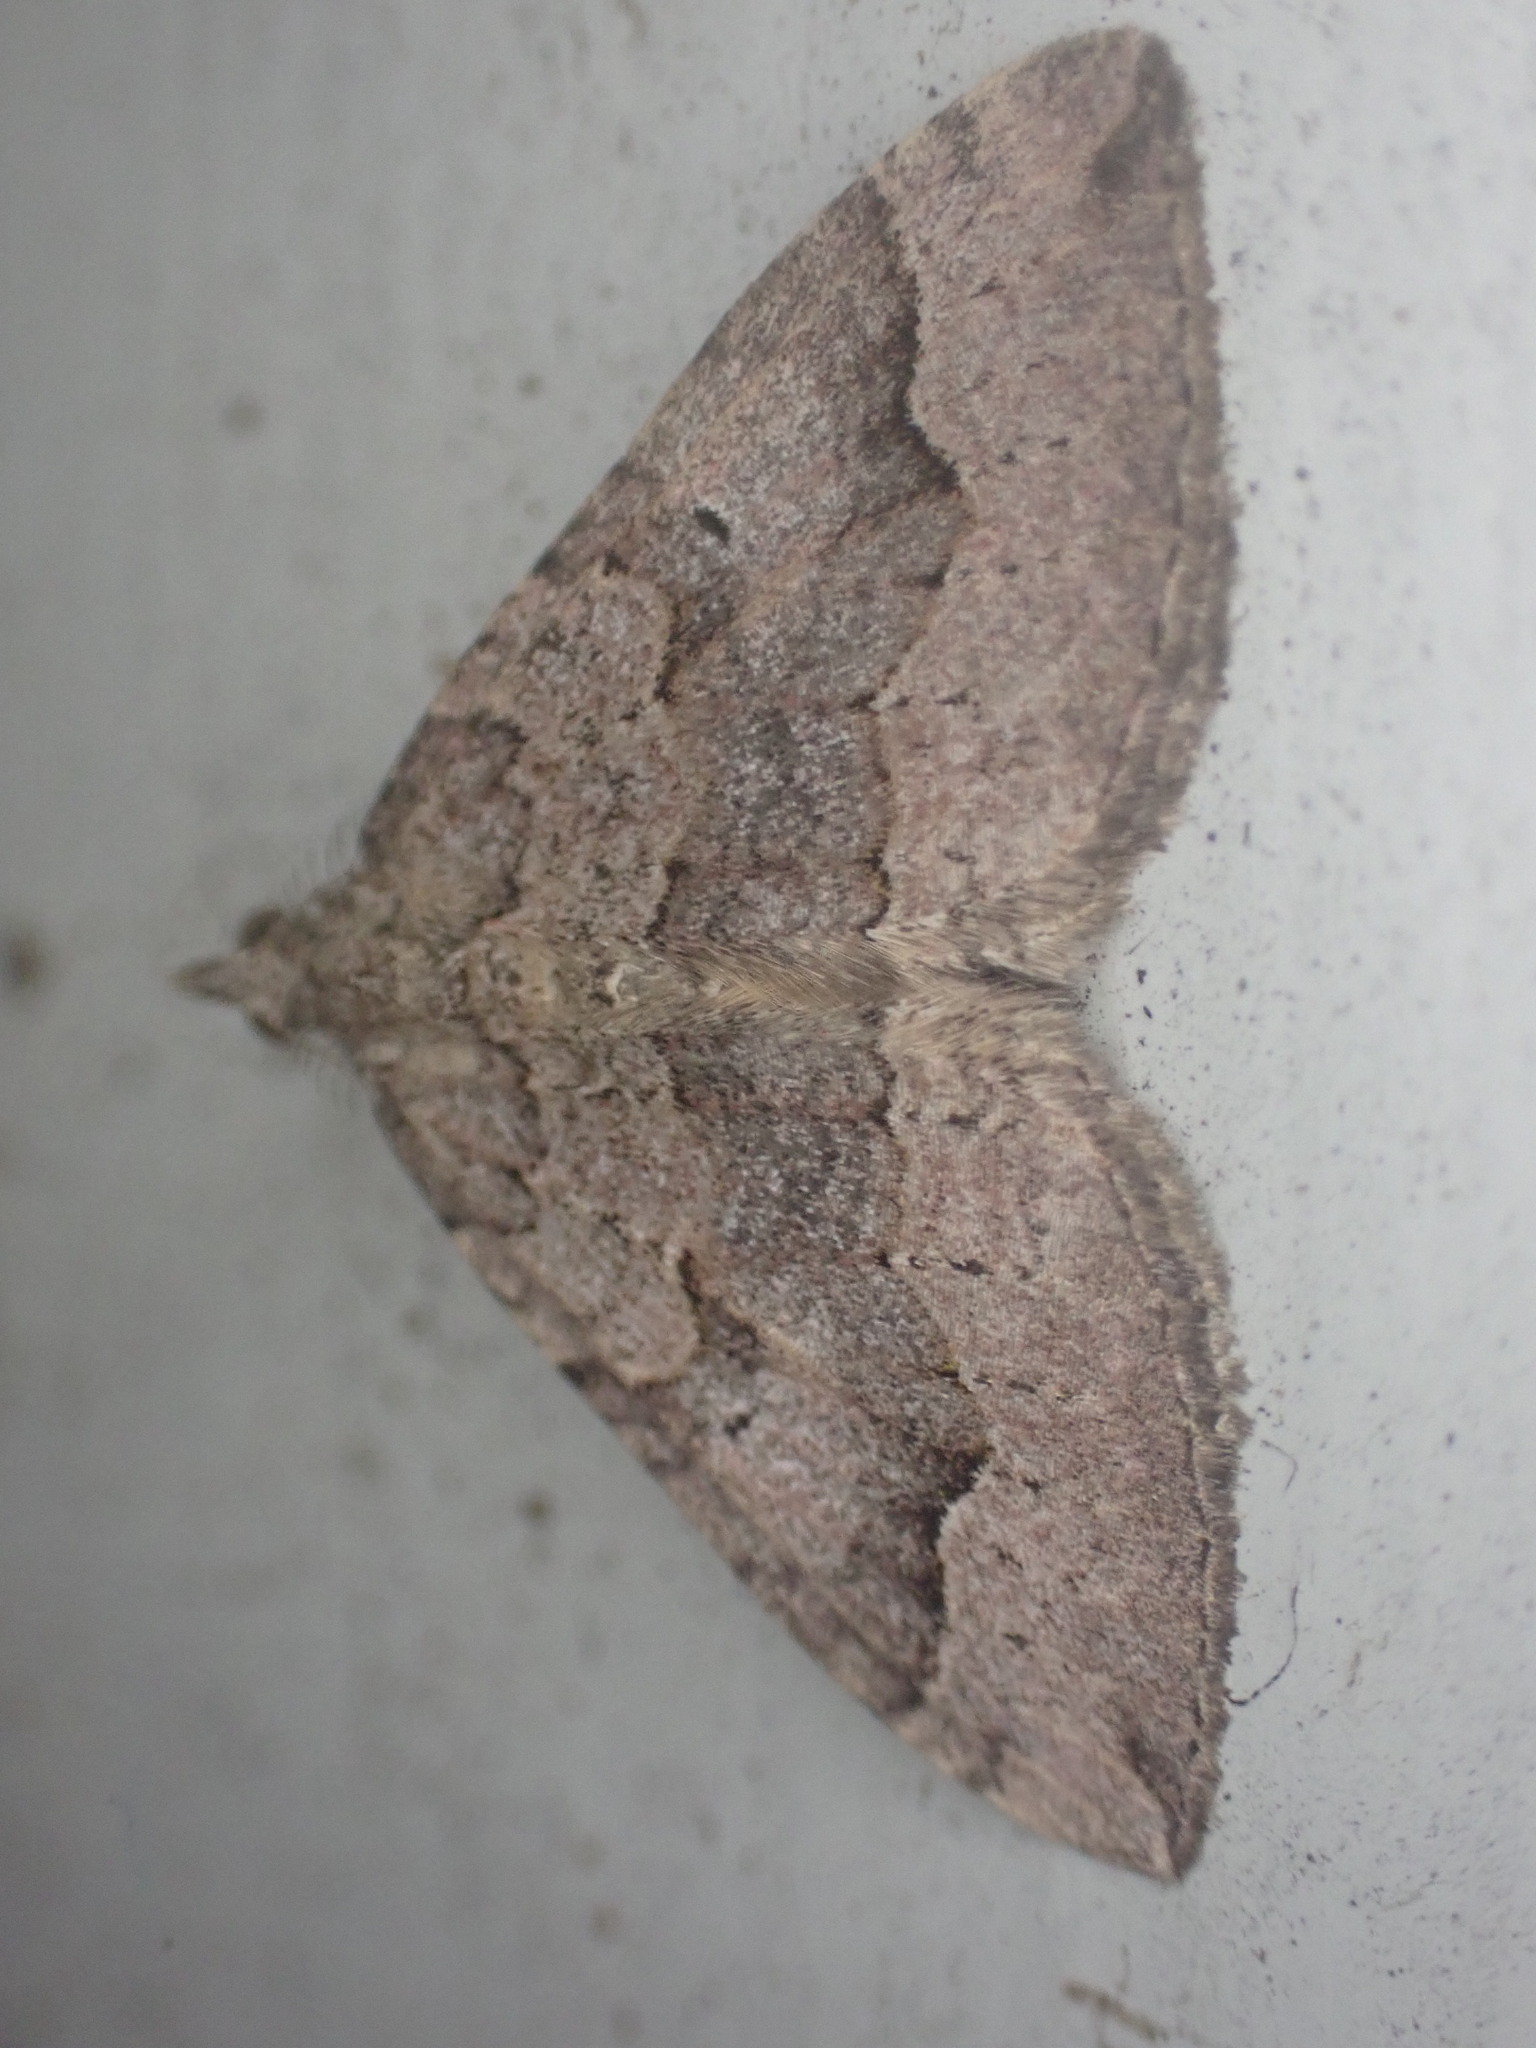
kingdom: Animalia
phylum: Arthropoda
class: Insecta
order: Lepidoptera
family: Geometridae
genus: Epyaxa
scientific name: Epyaxa rosearia
